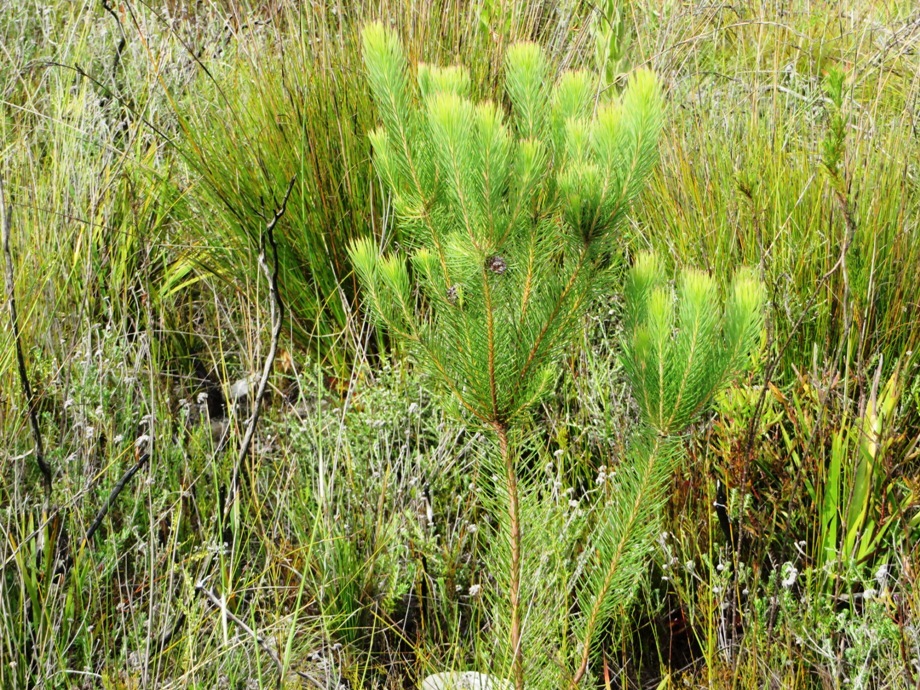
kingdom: Plantae
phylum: Tracheophyta
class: Magnoliopsida
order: Proteales
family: Proteaceae
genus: Sorocephalus
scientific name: Sorocephalus pinifolius
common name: Long-leaf clusterhead
